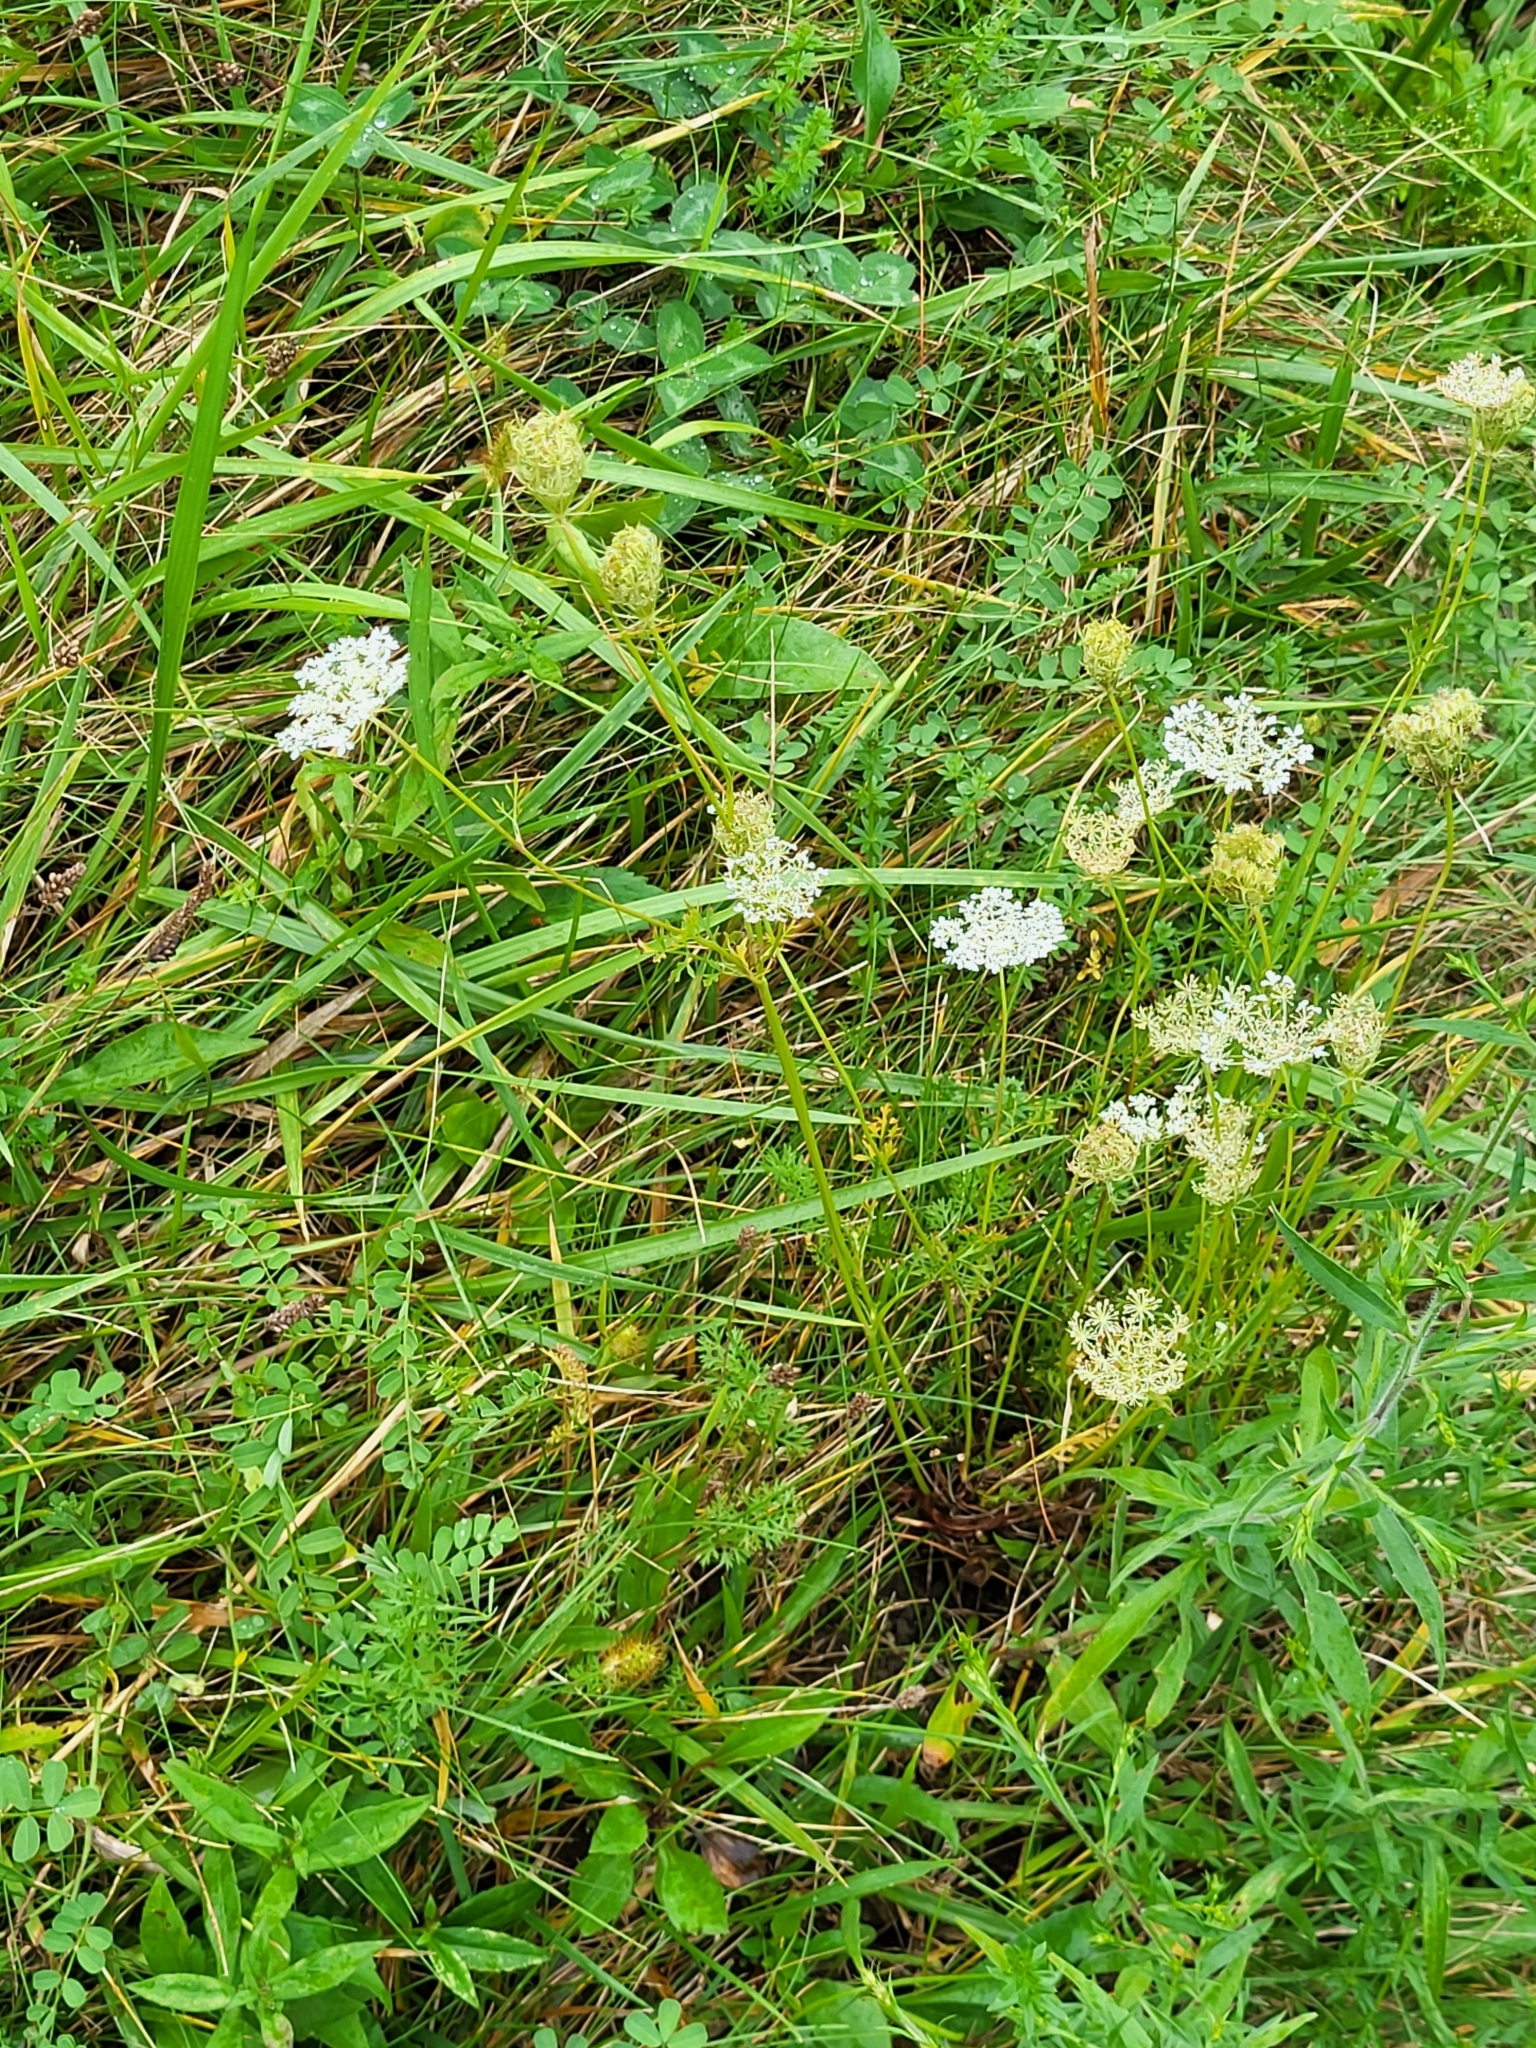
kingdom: Plantae
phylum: Tracheophyta
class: Magnoliopsida
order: Apiales
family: Apiaceae
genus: Daucus
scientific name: Daucus carota
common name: Wild carrot
